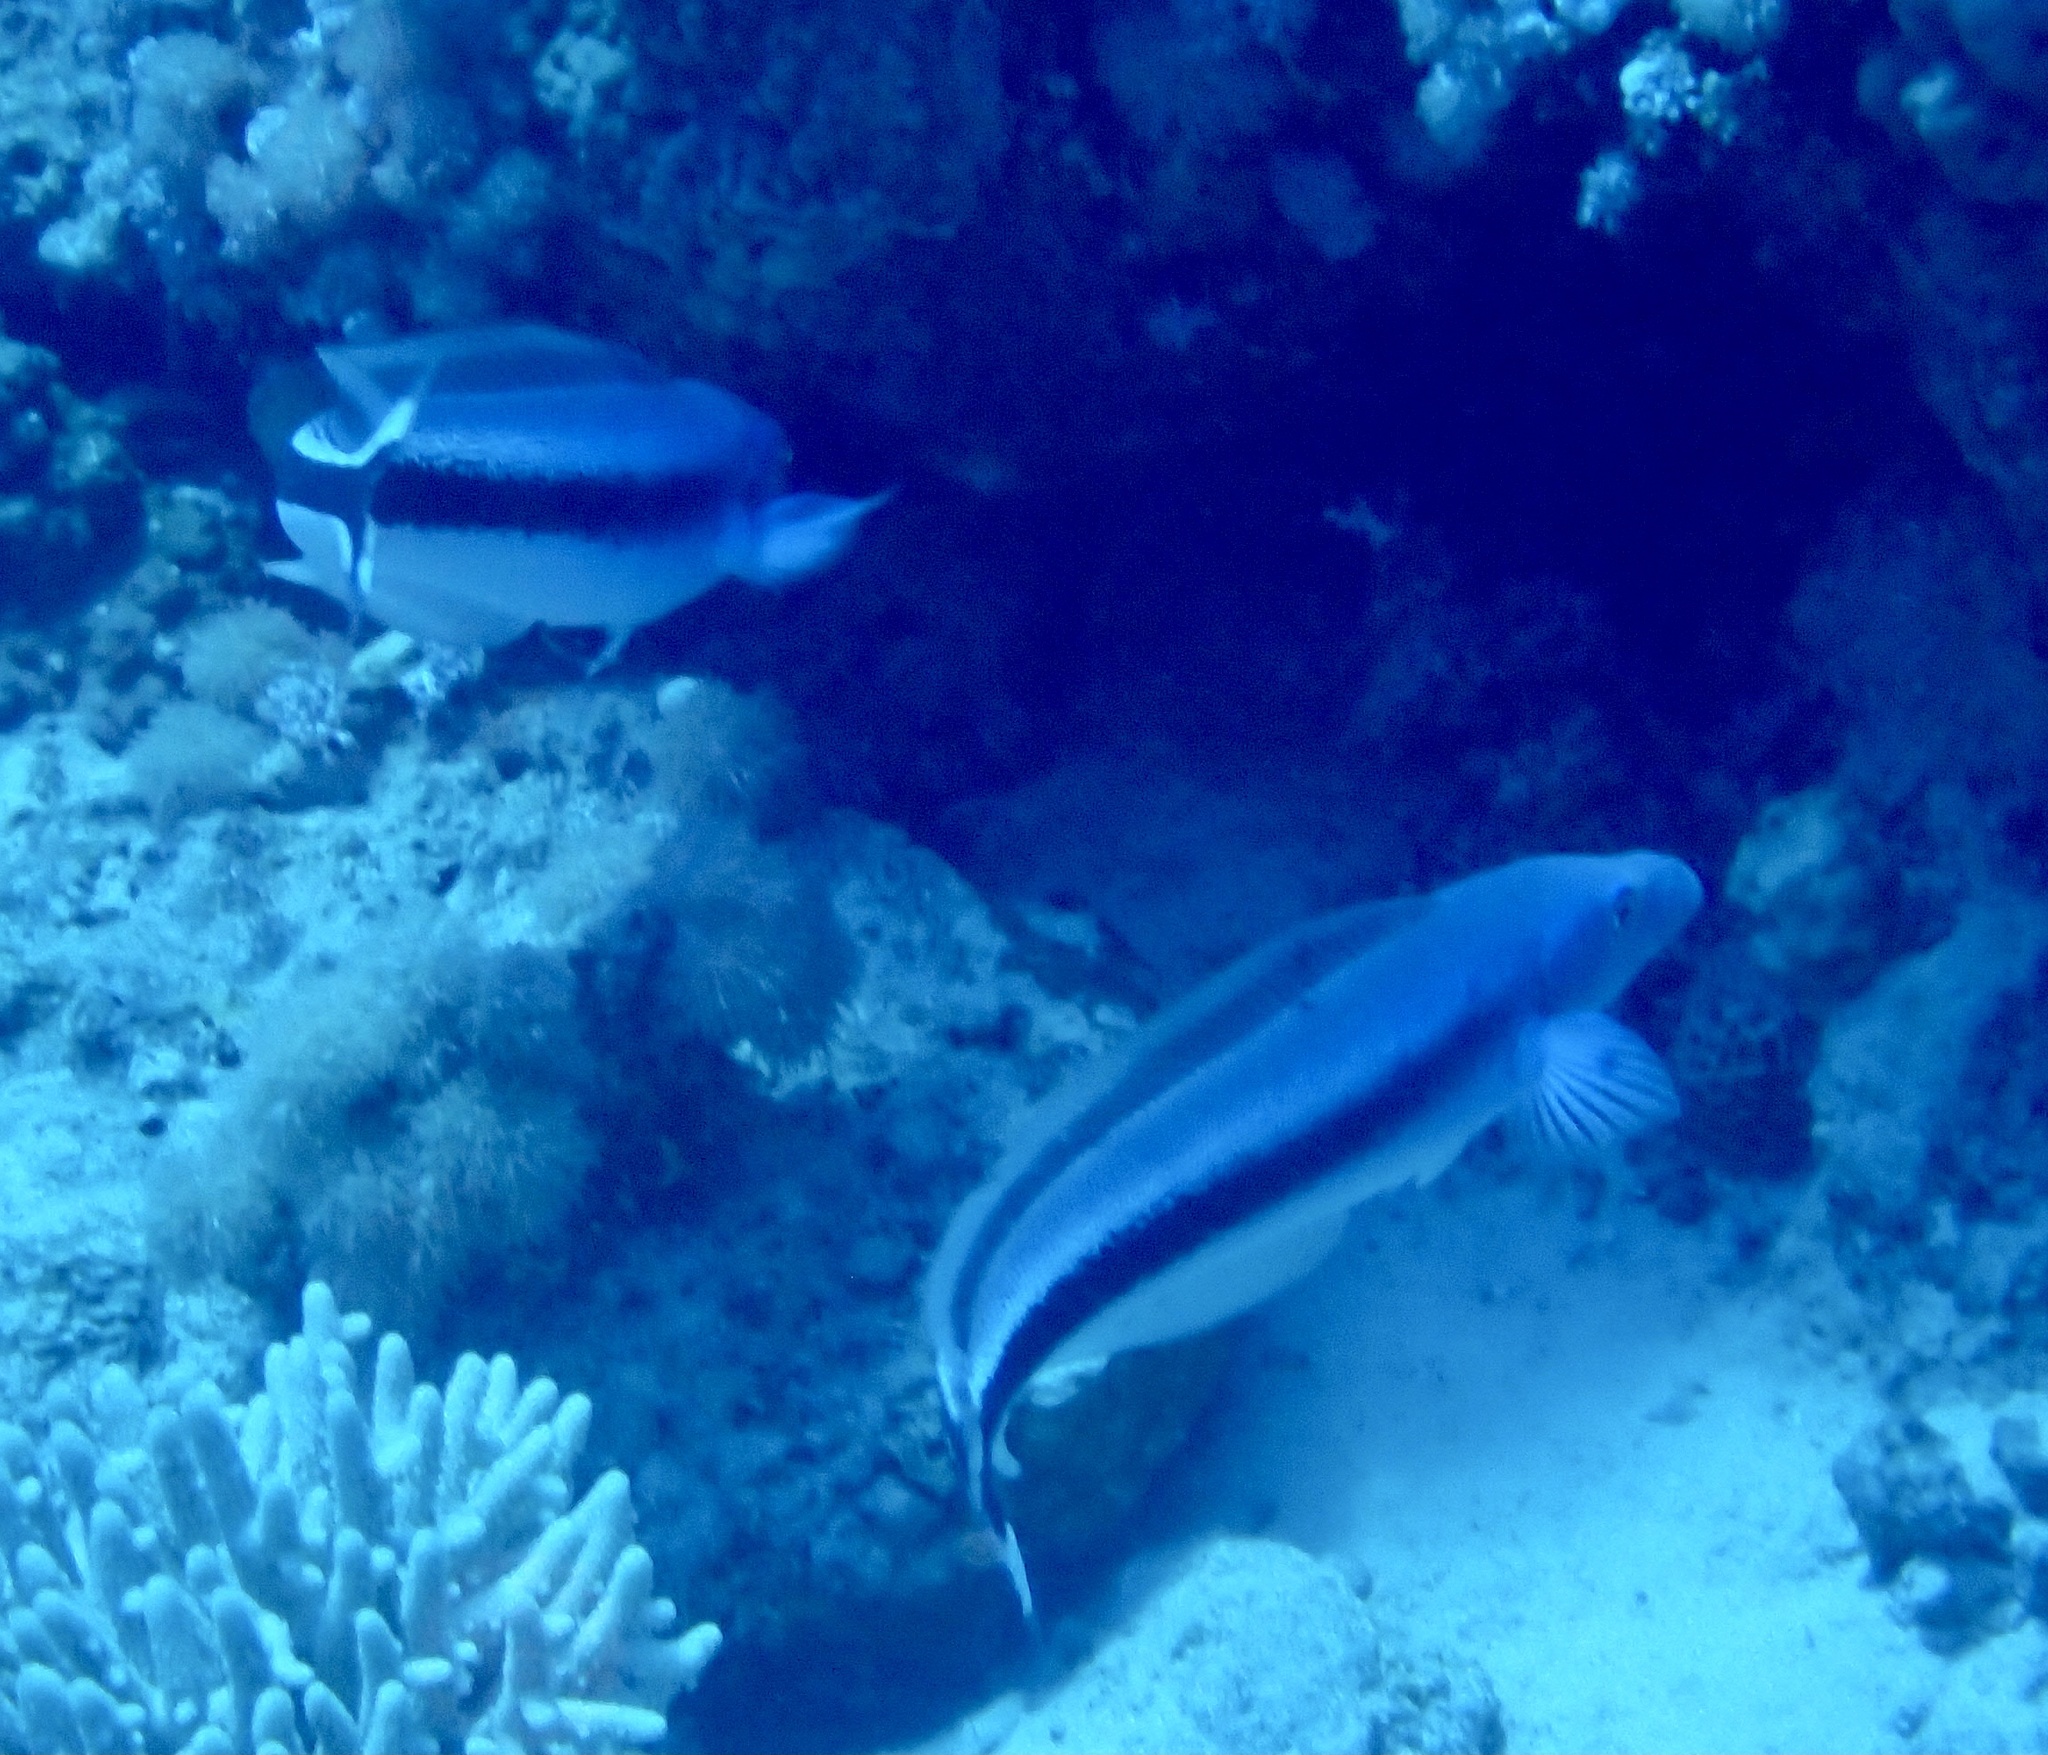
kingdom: Animalia
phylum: Chordata
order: Perciformes
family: Malacanthidae
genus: Malacanthus
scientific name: Malacanthus latovittatus
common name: Blue blanquillo
